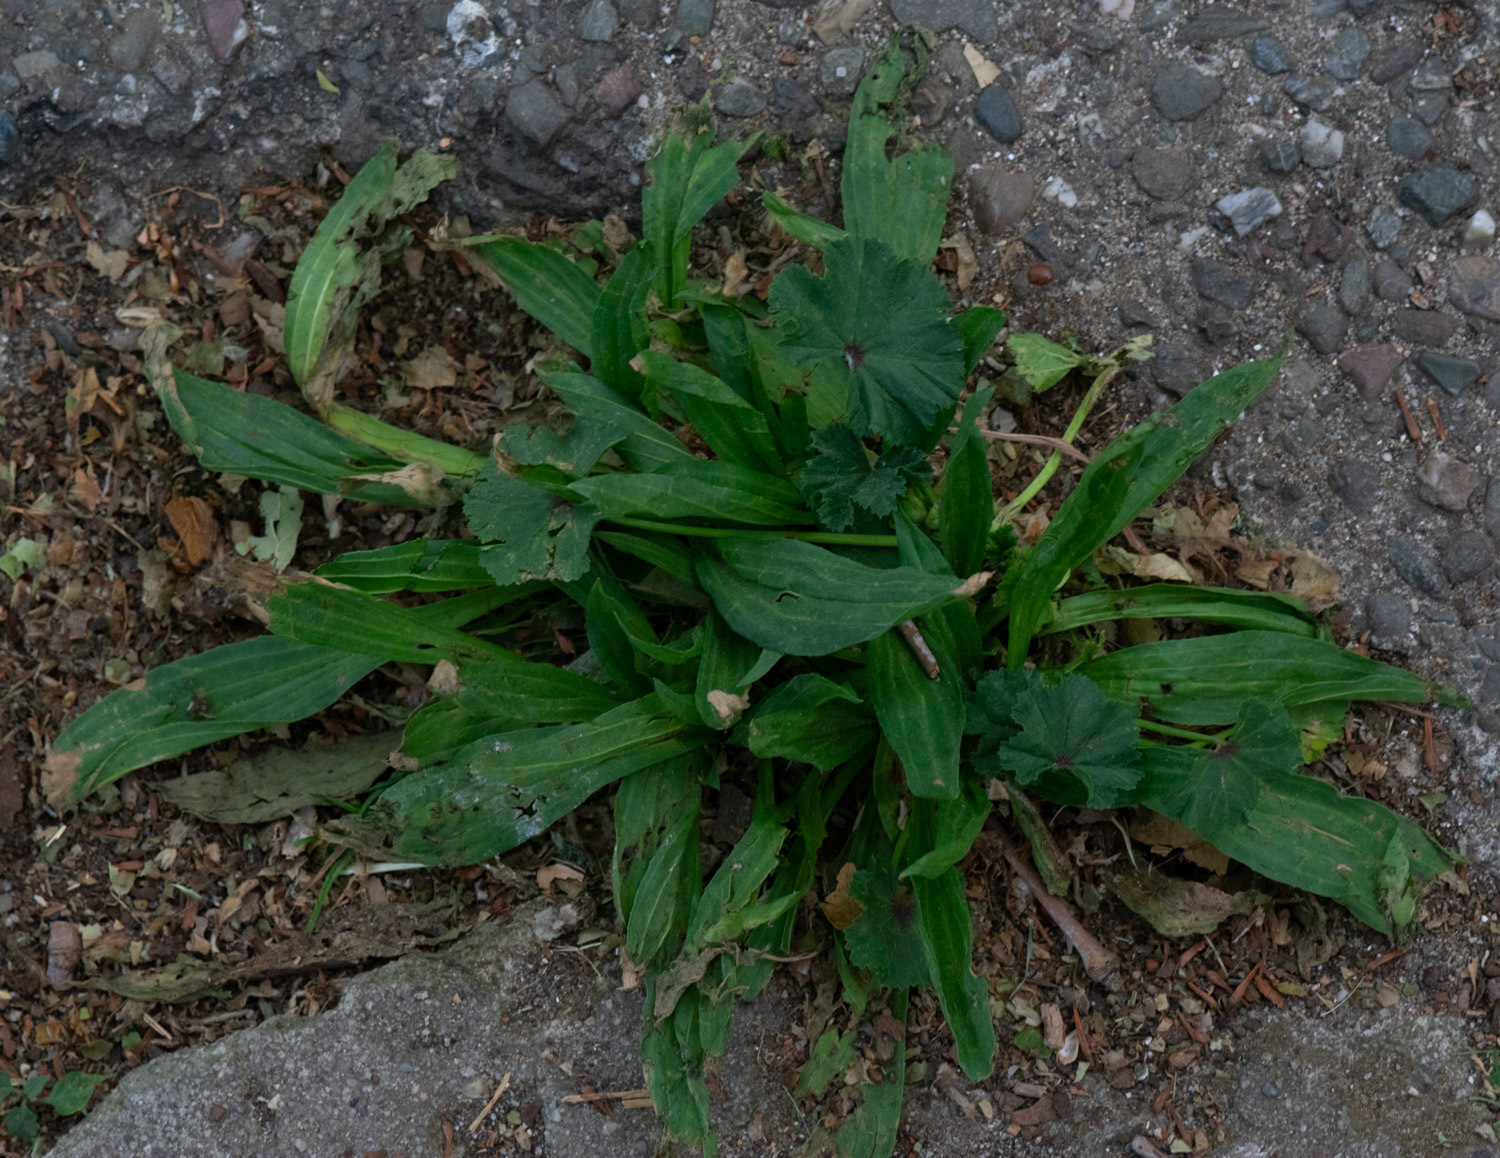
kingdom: Plantae
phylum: Tracheophyta
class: Magnoliopsida
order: Lamiales
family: Plantaginaceae
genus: Plantago
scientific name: Plantago lanceolata
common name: Ribwort plantain
